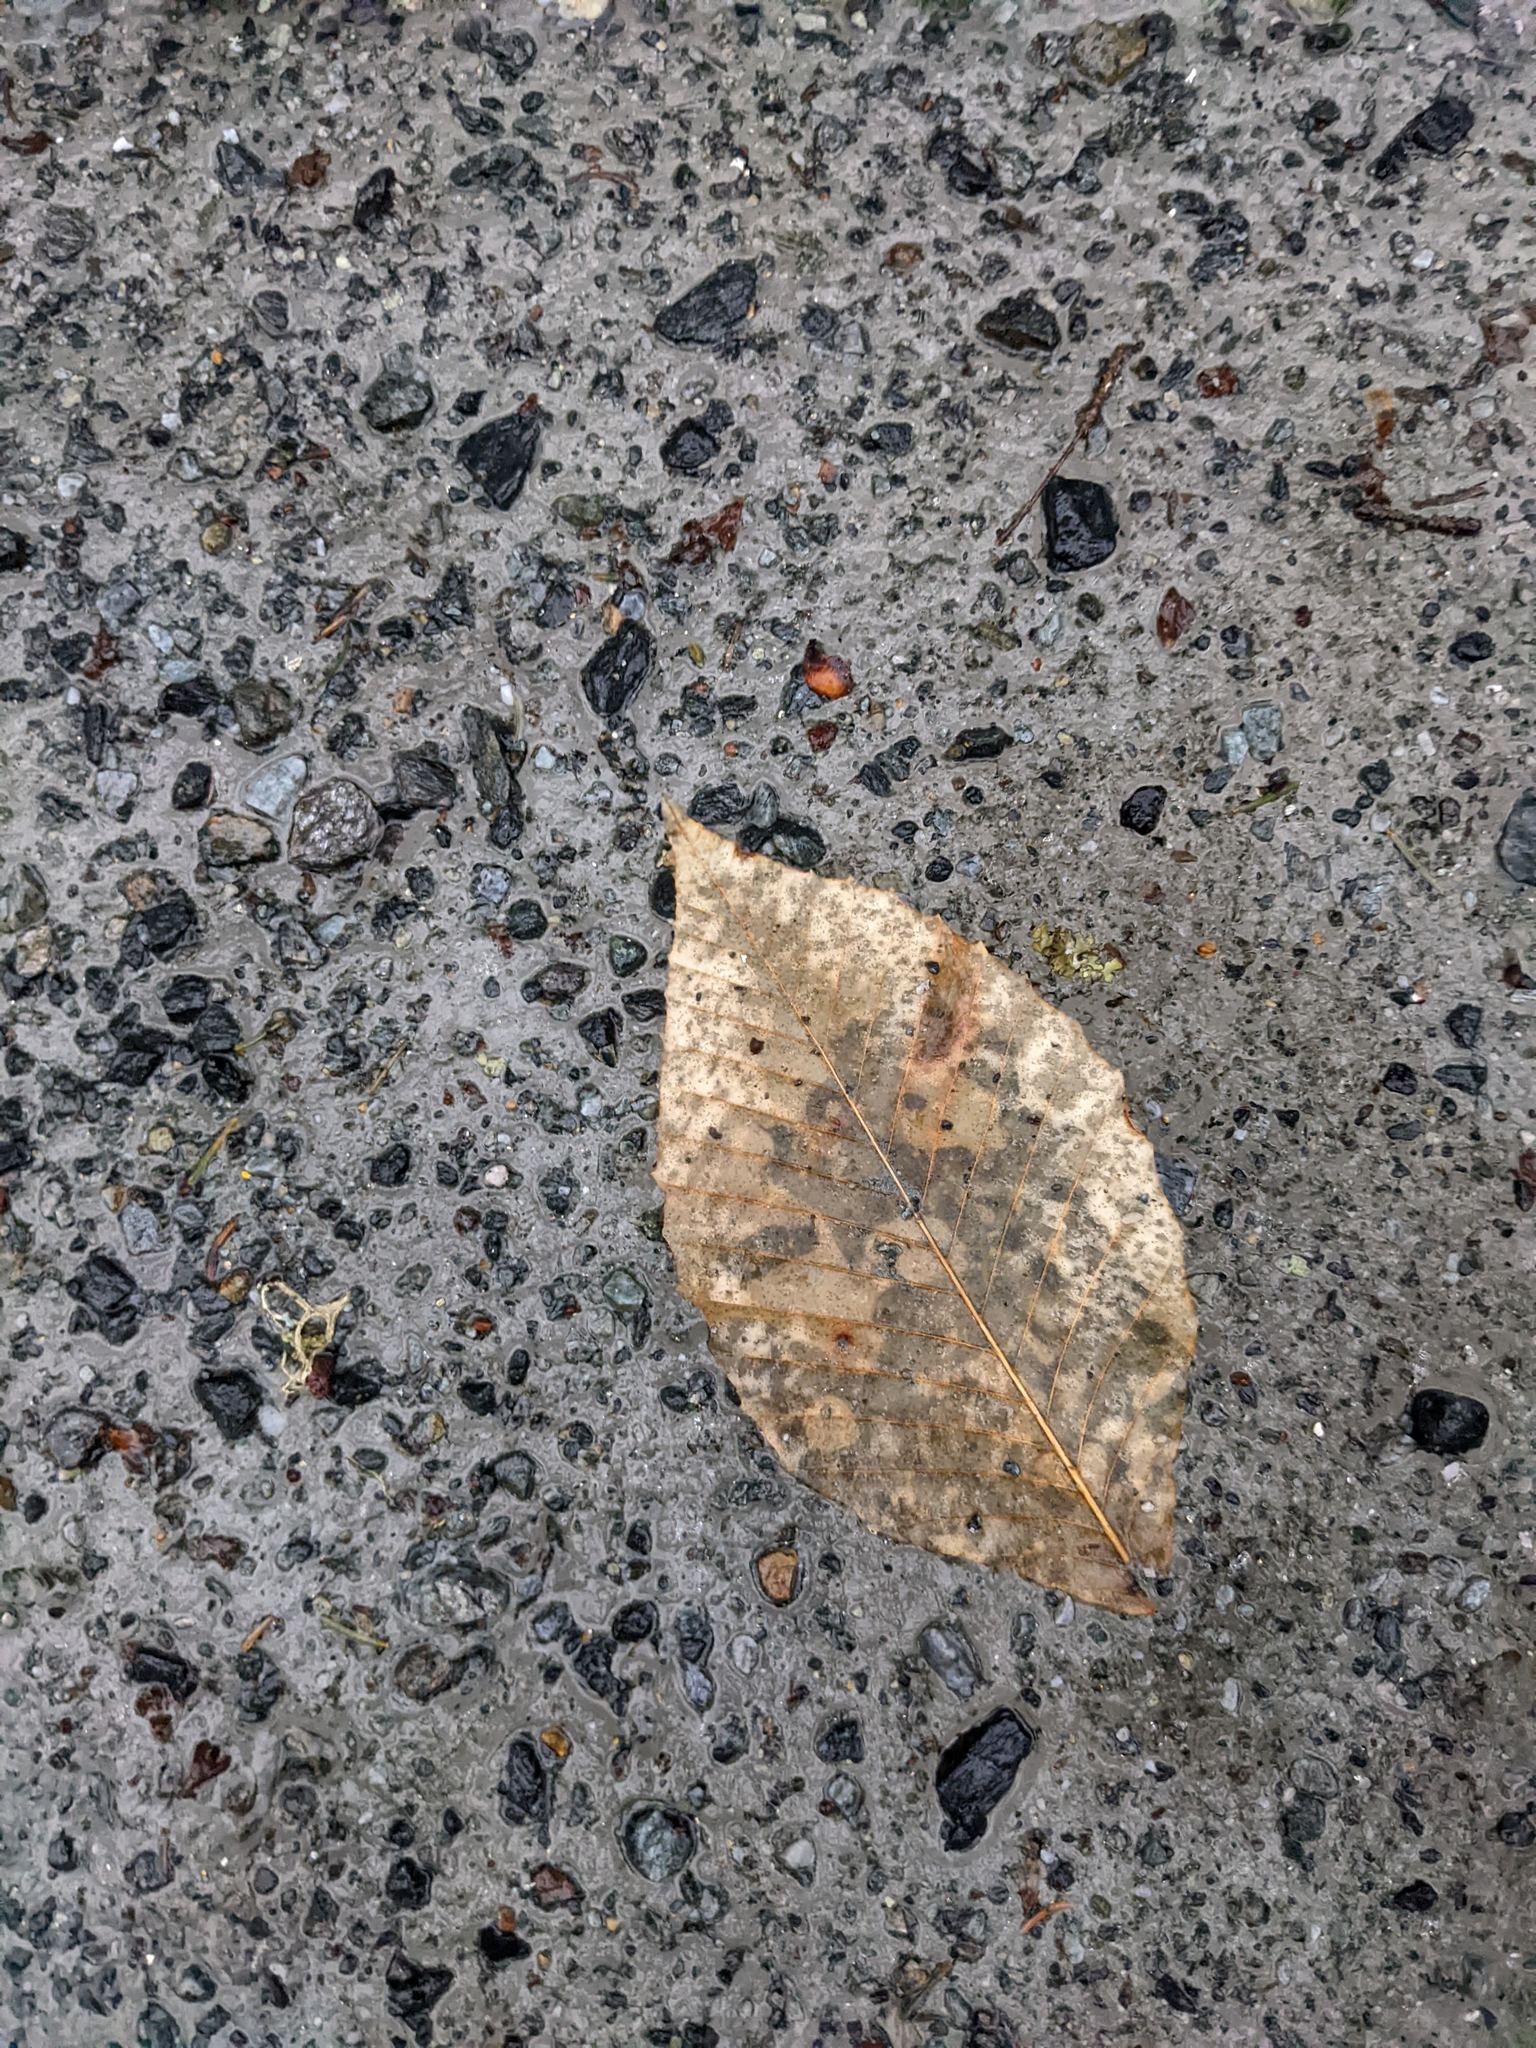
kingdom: Plantae
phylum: Tracheophyta
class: Magnoliopsida
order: Fagales
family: Fagaceae
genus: Fagus
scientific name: Fagus grandifolia
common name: American beech
